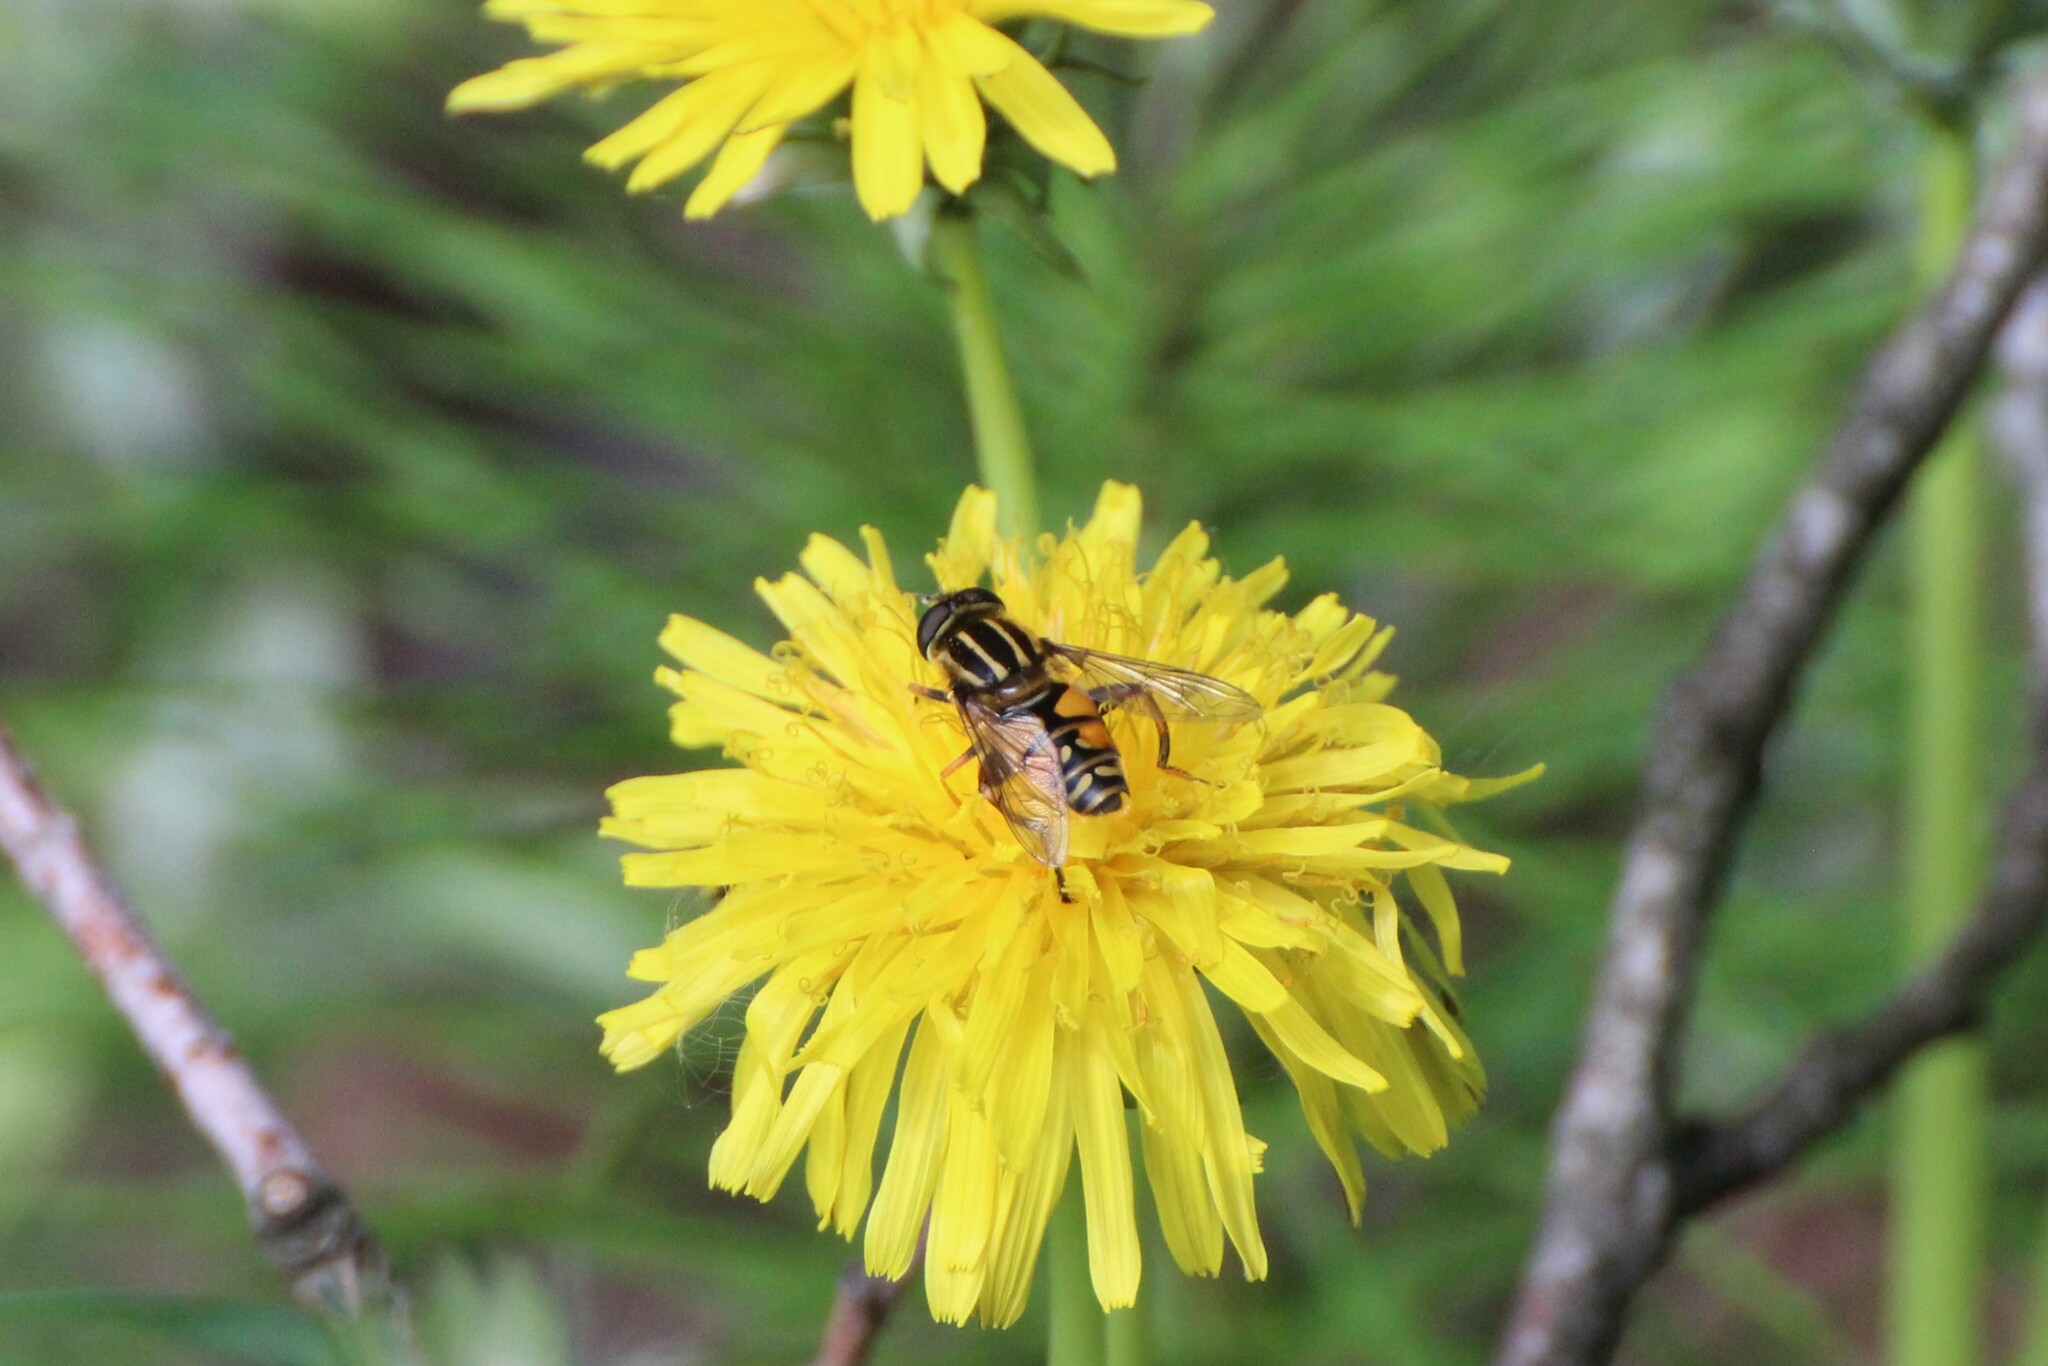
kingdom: Animalia
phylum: Arthropoda
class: Insecta
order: Diptera
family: Syrphidae
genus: Helophilus
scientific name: Helophilus pendulus
